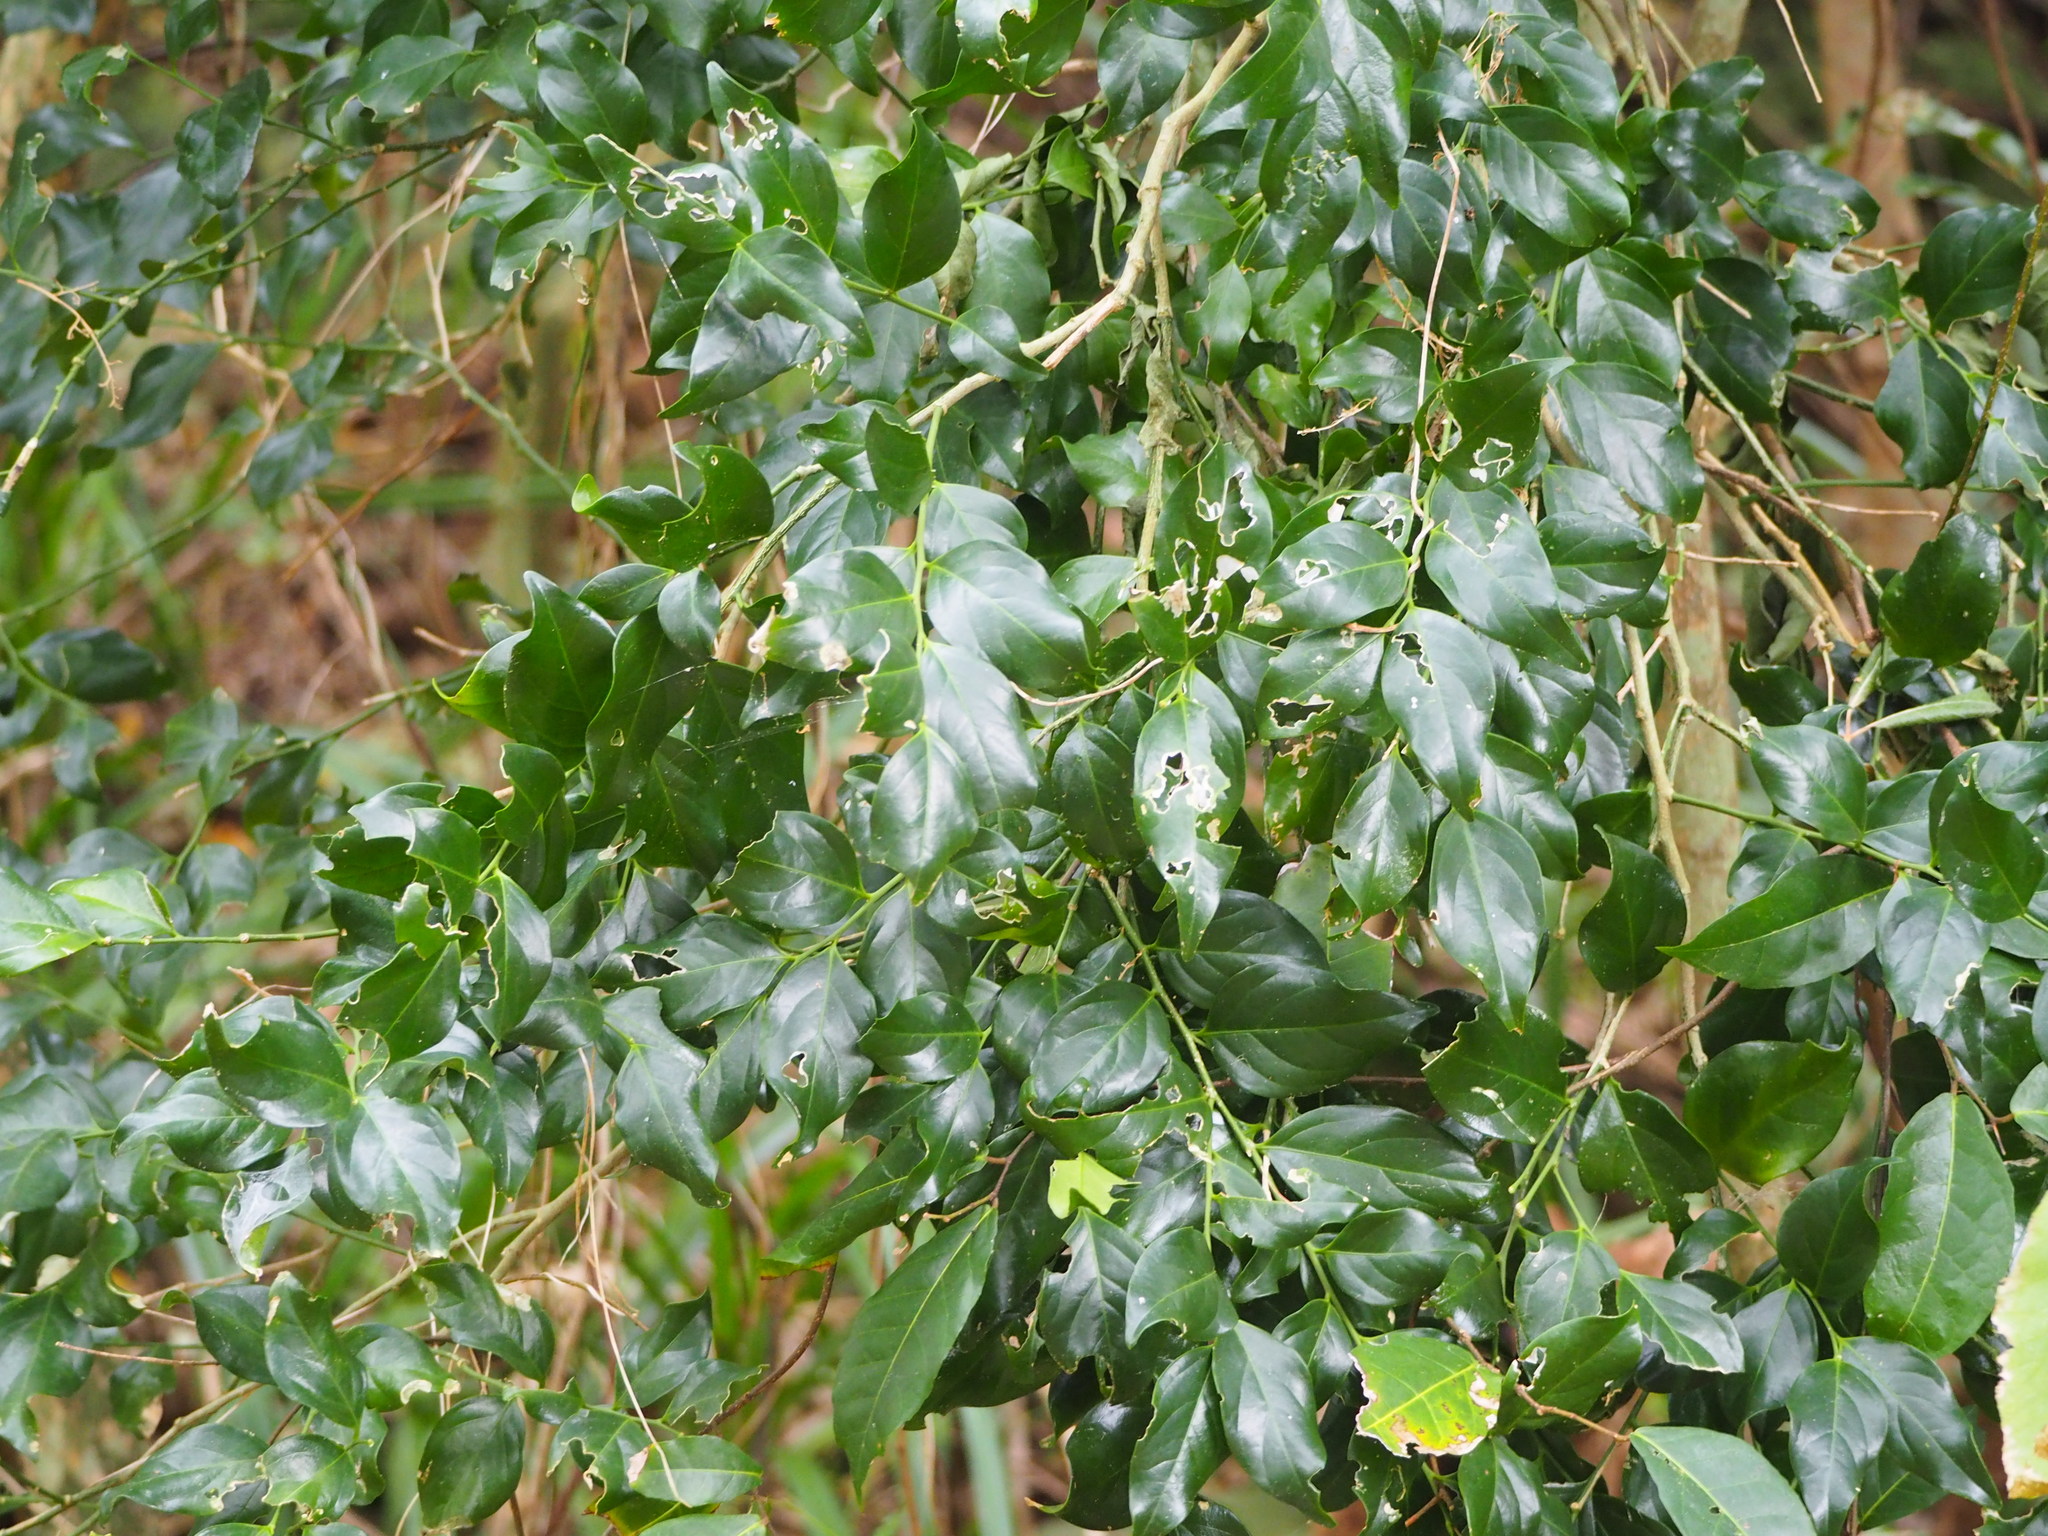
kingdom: Plantae
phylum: Tracheophyta
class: Magnoliopsida
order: Santalales
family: Opiliaceae
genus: Champereia
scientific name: Champereia manillana
